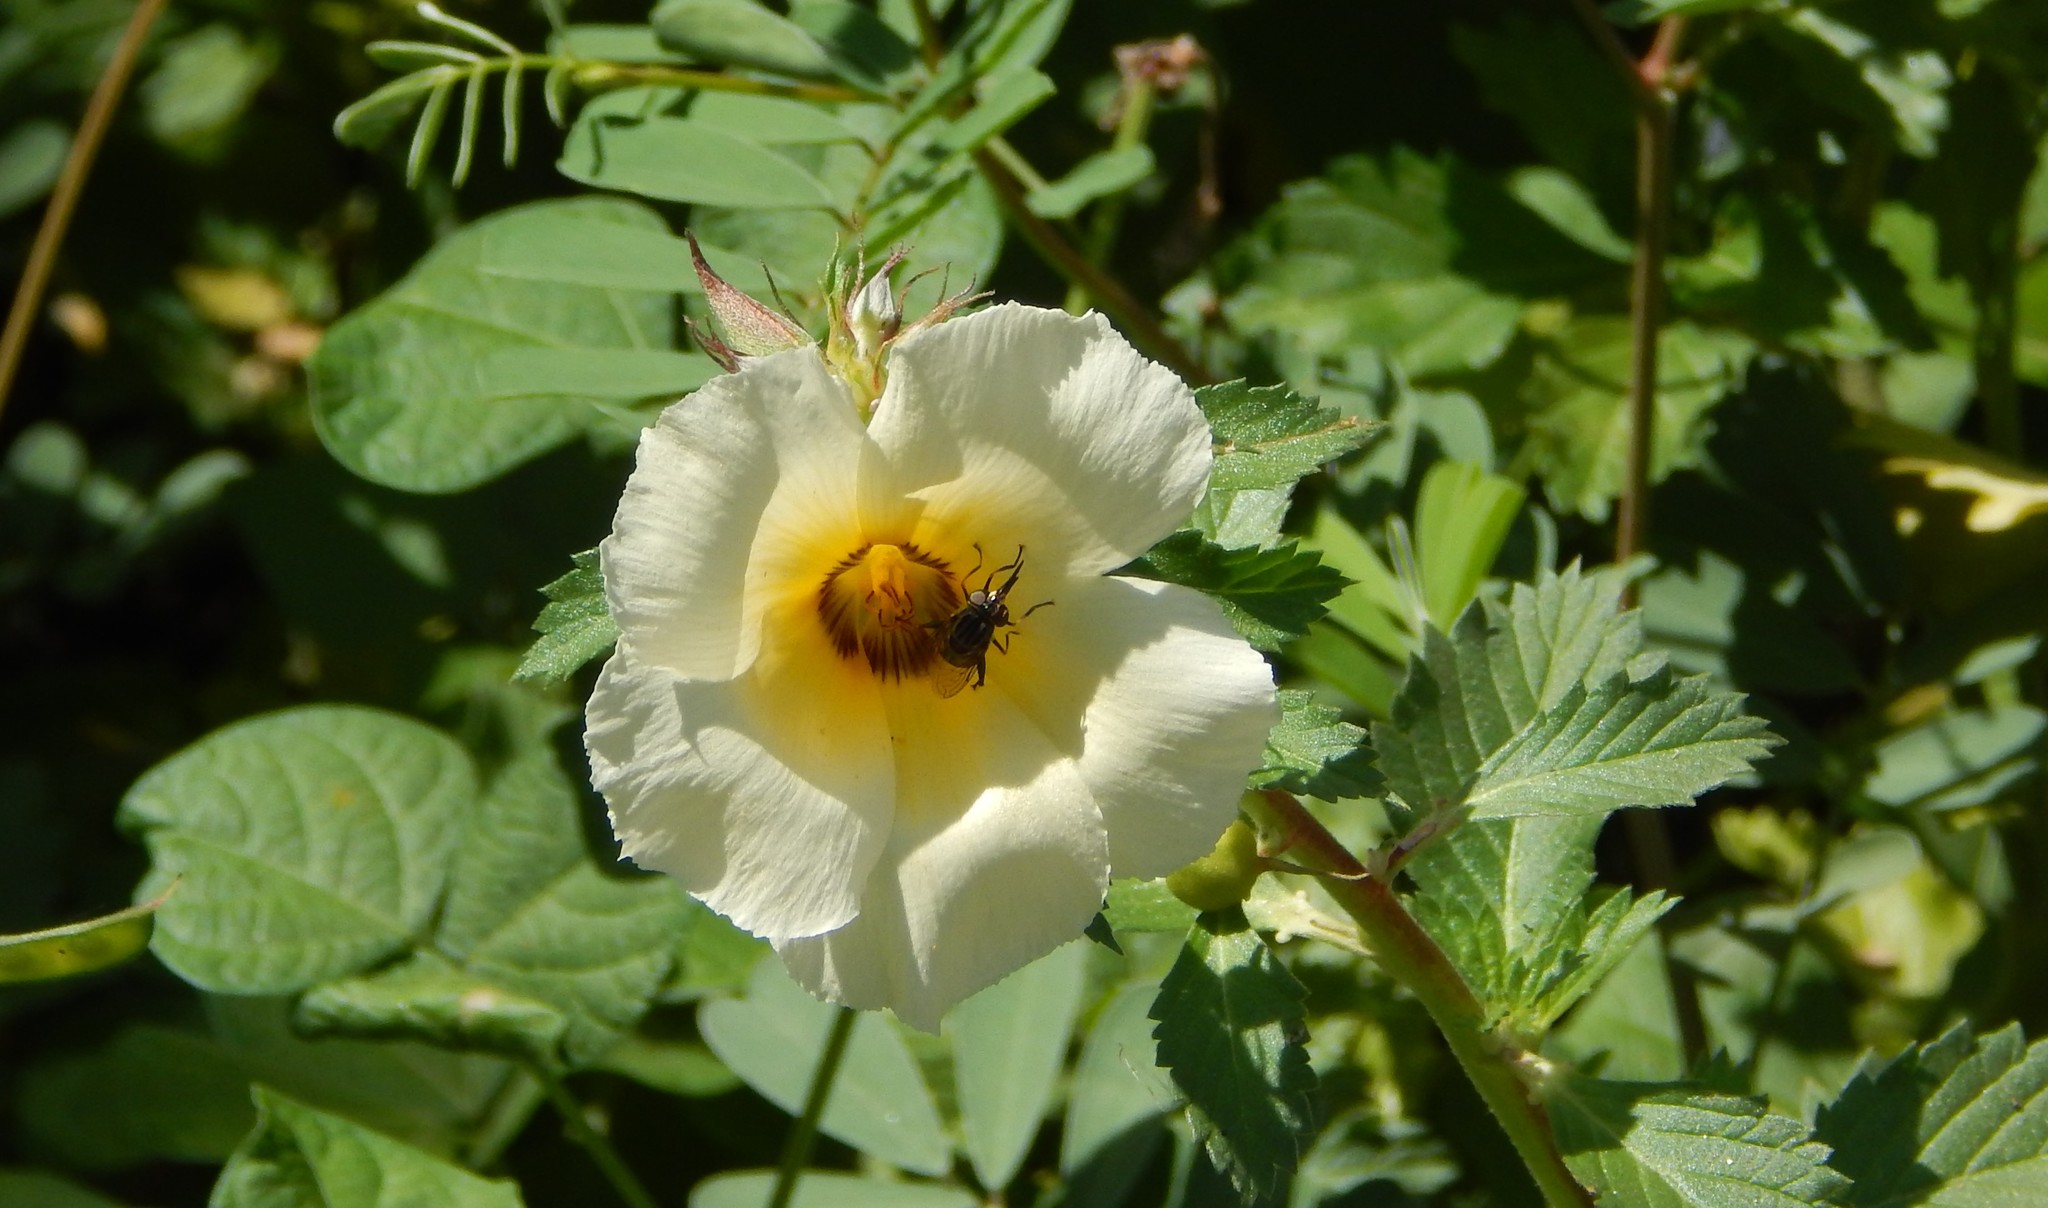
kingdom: Animalia
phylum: Arthropoda
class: Insecta
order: Diptera
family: Syrphidae
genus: Lycastrirhyncha
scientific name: Lycastrirhyncha nitens
